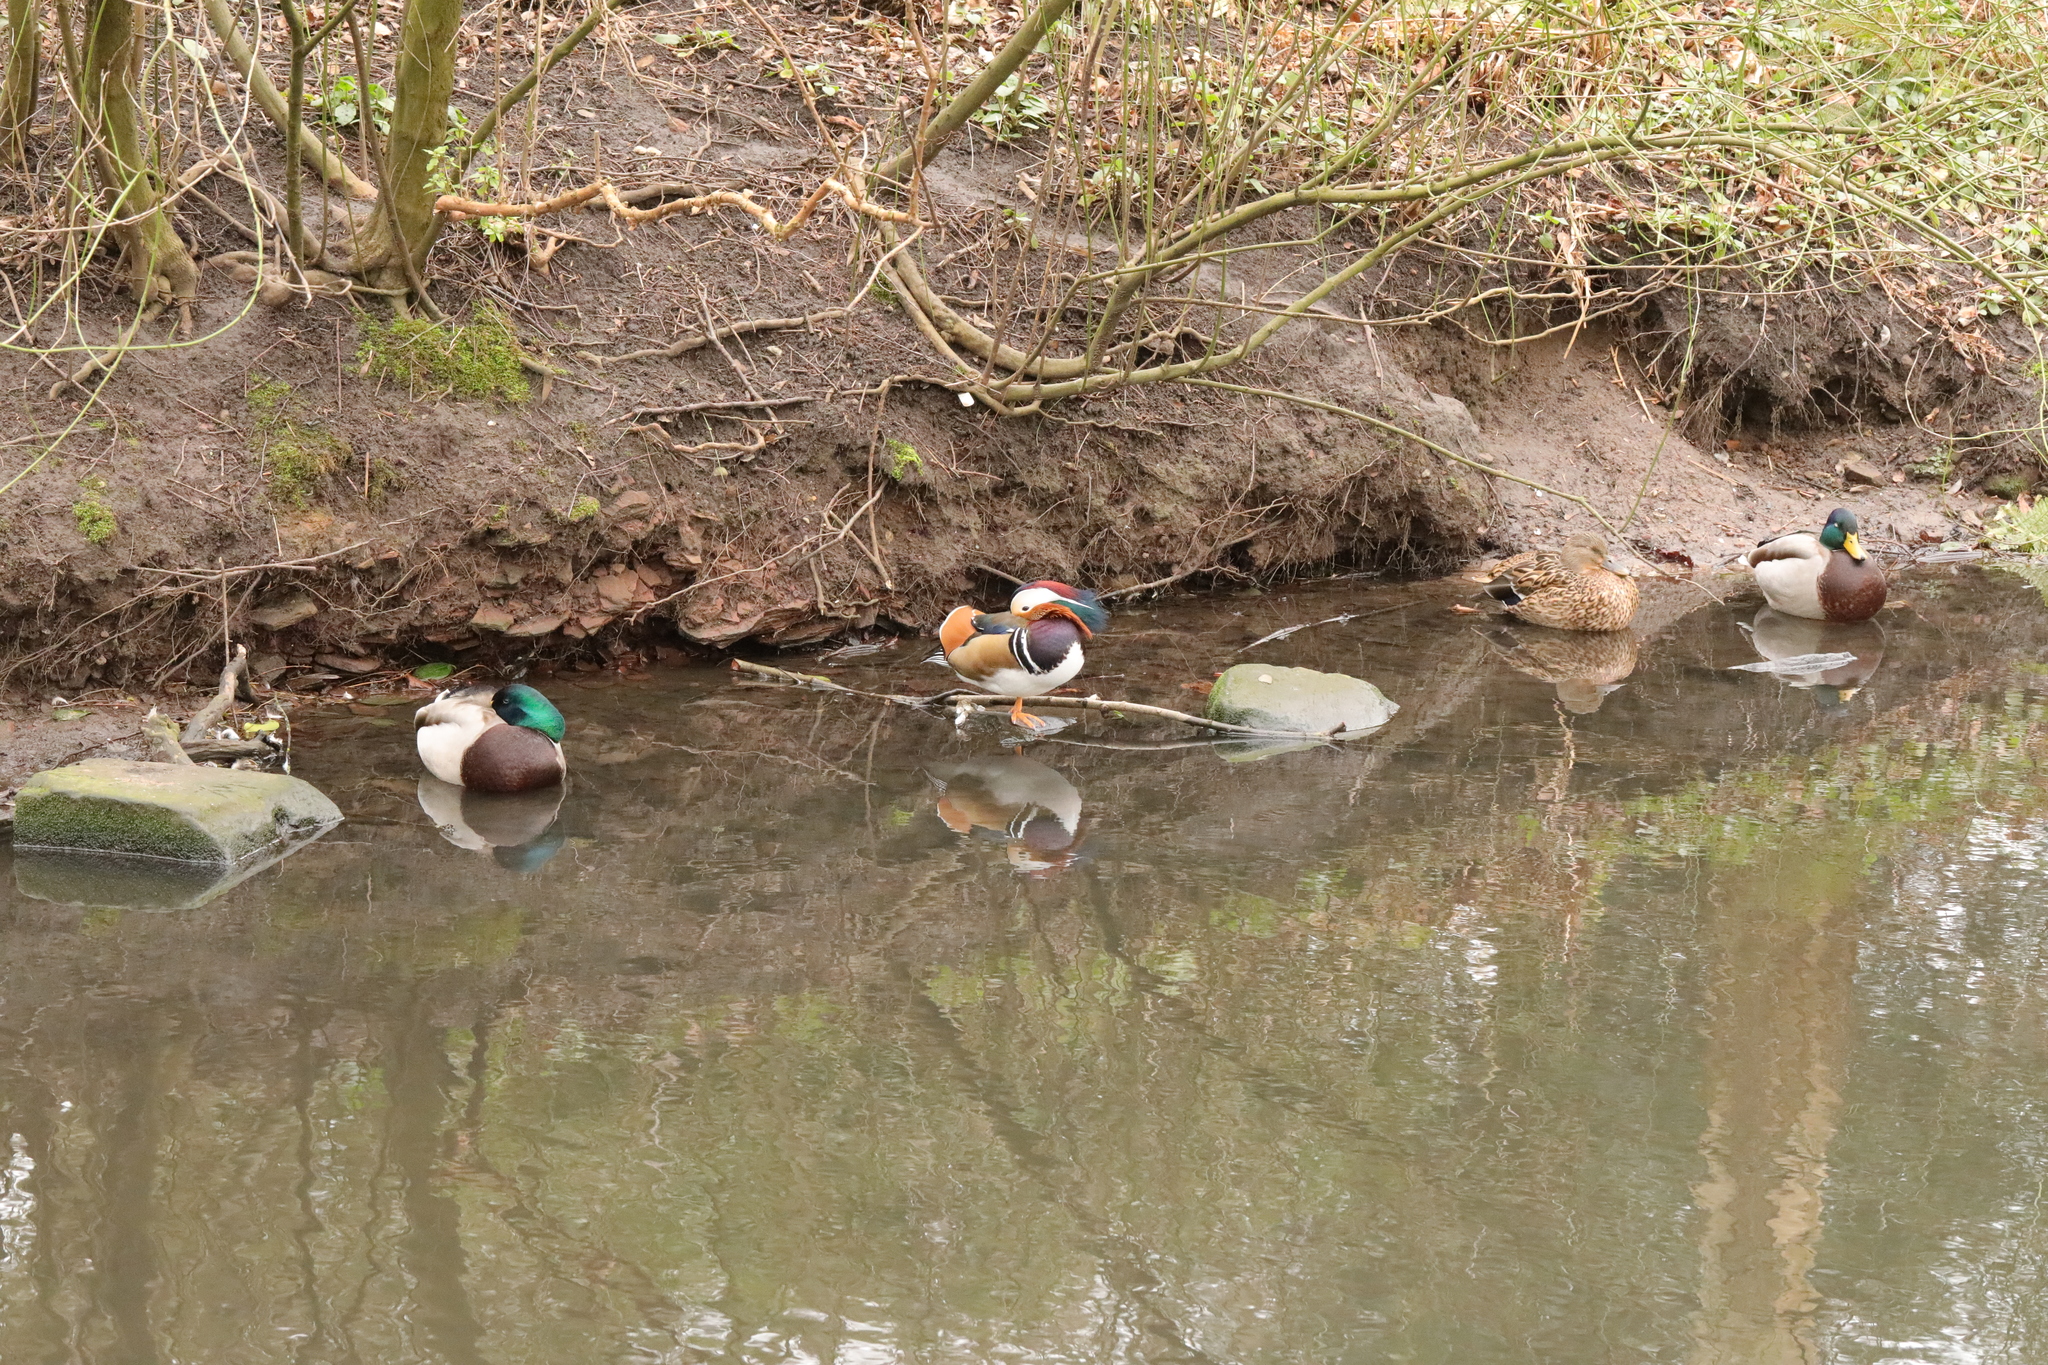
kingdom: Animalia
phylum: Chordata
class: Aves
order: Anseriformes
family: Anatidae
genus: Aix
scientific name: Aix galericulata
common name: Mandarin duck
